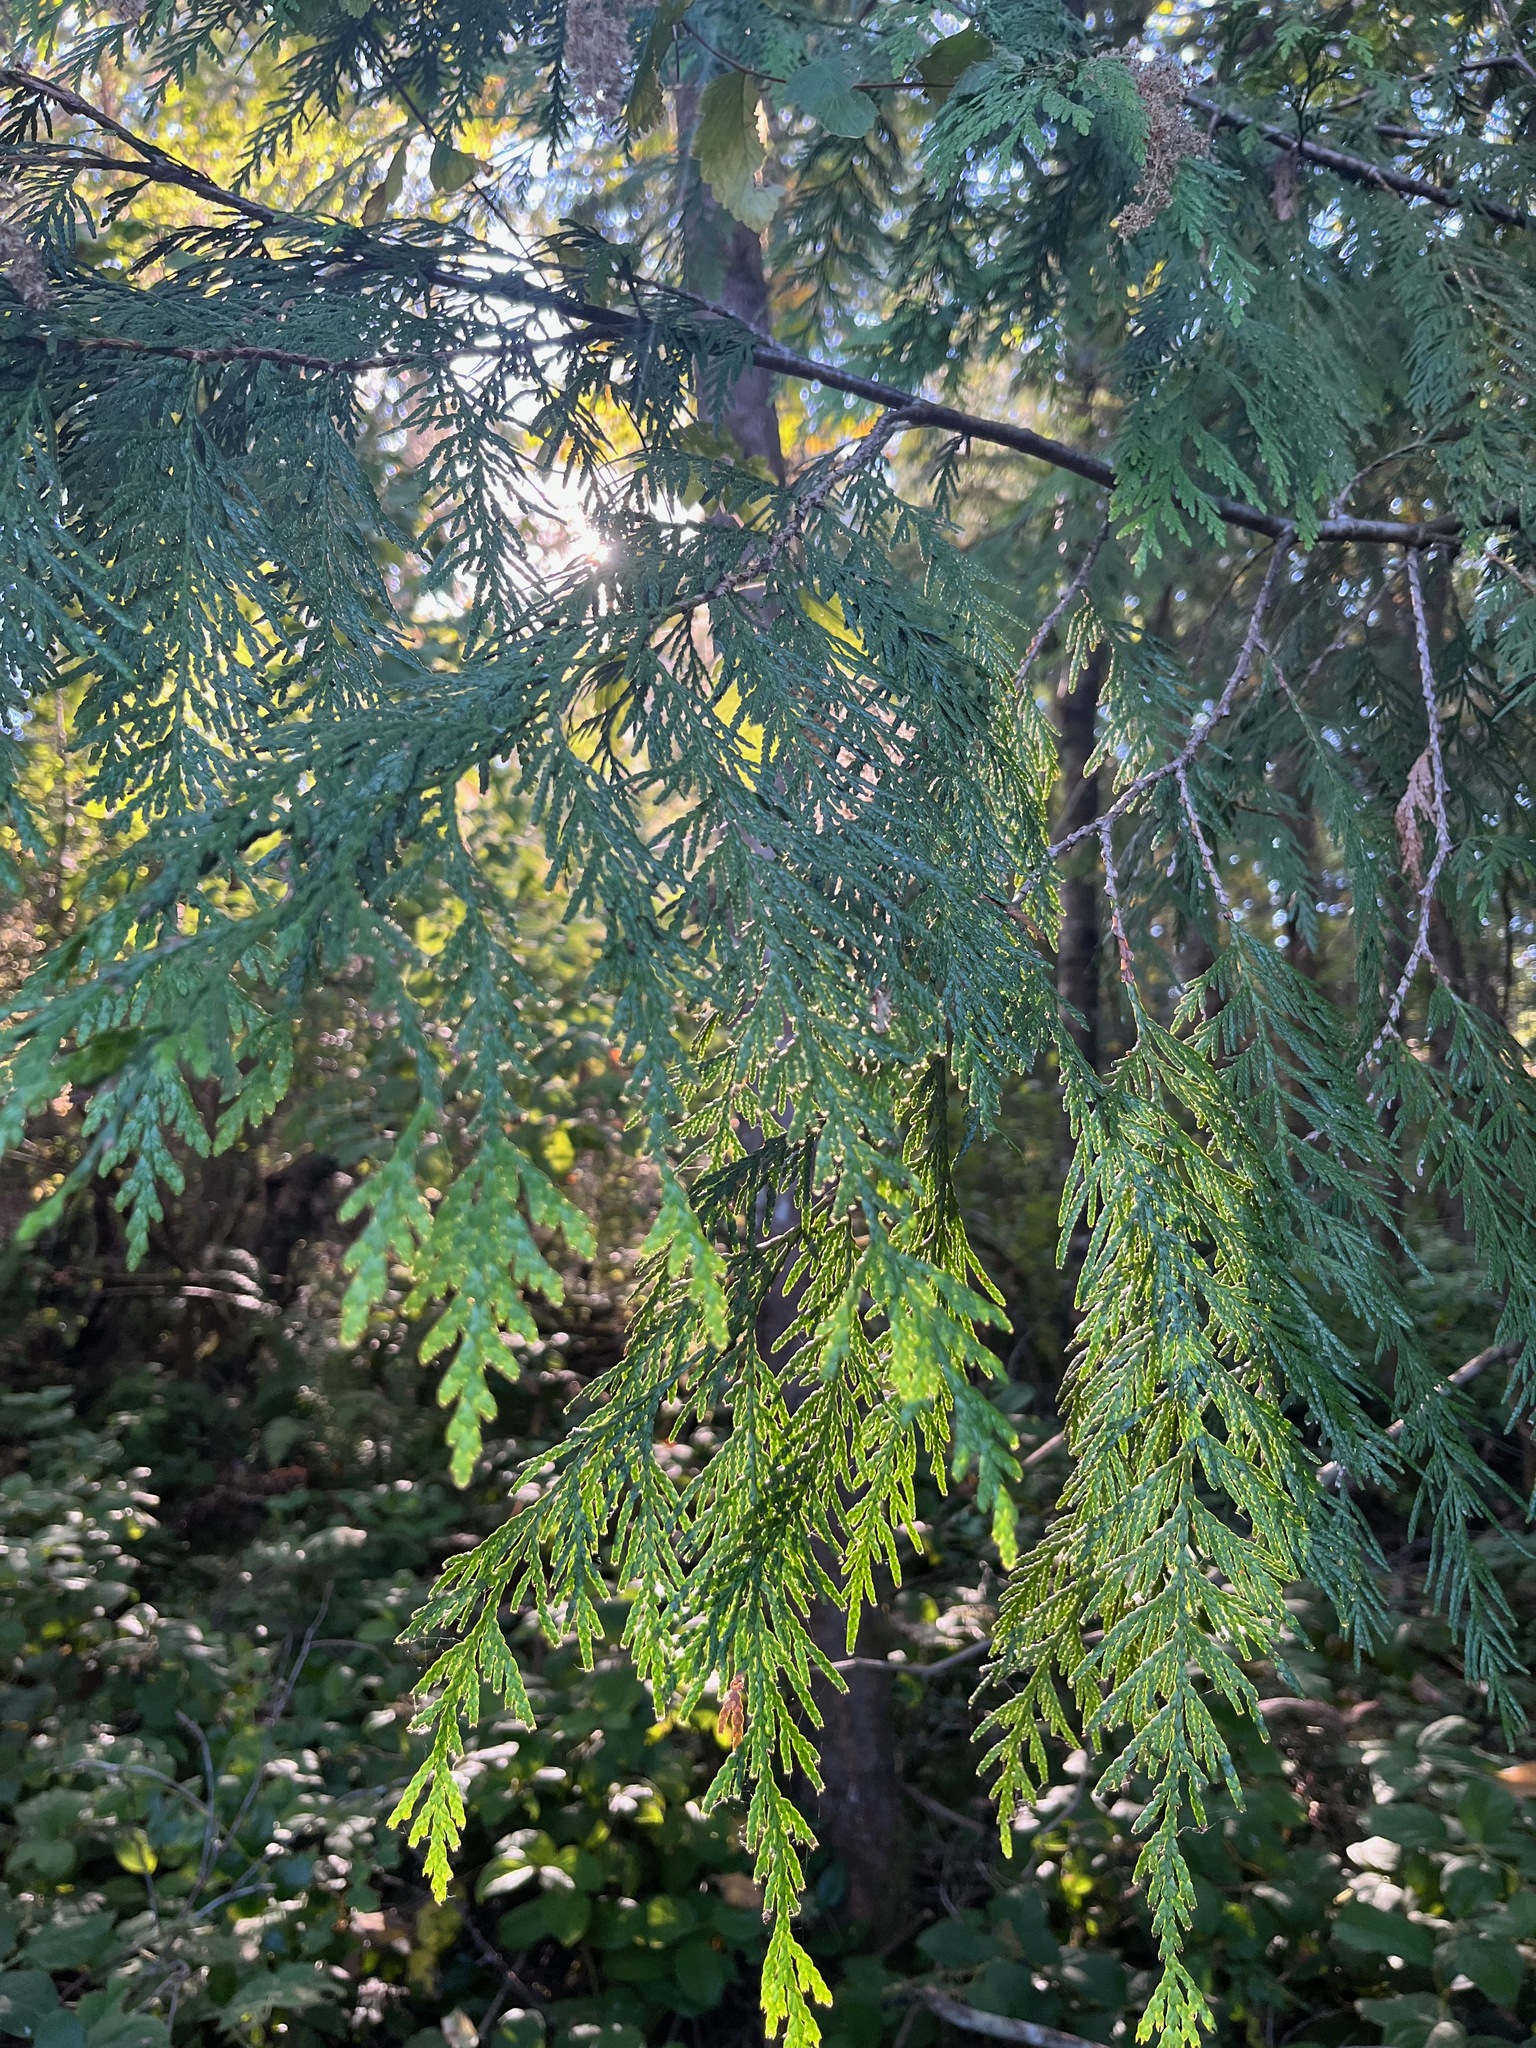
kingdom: Plantae
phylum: Tracheophyta
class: Pinopsida
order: Pinales
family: Cupressaceae
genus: Thuja
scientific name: Thuja plicata
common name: Western red-cedar
